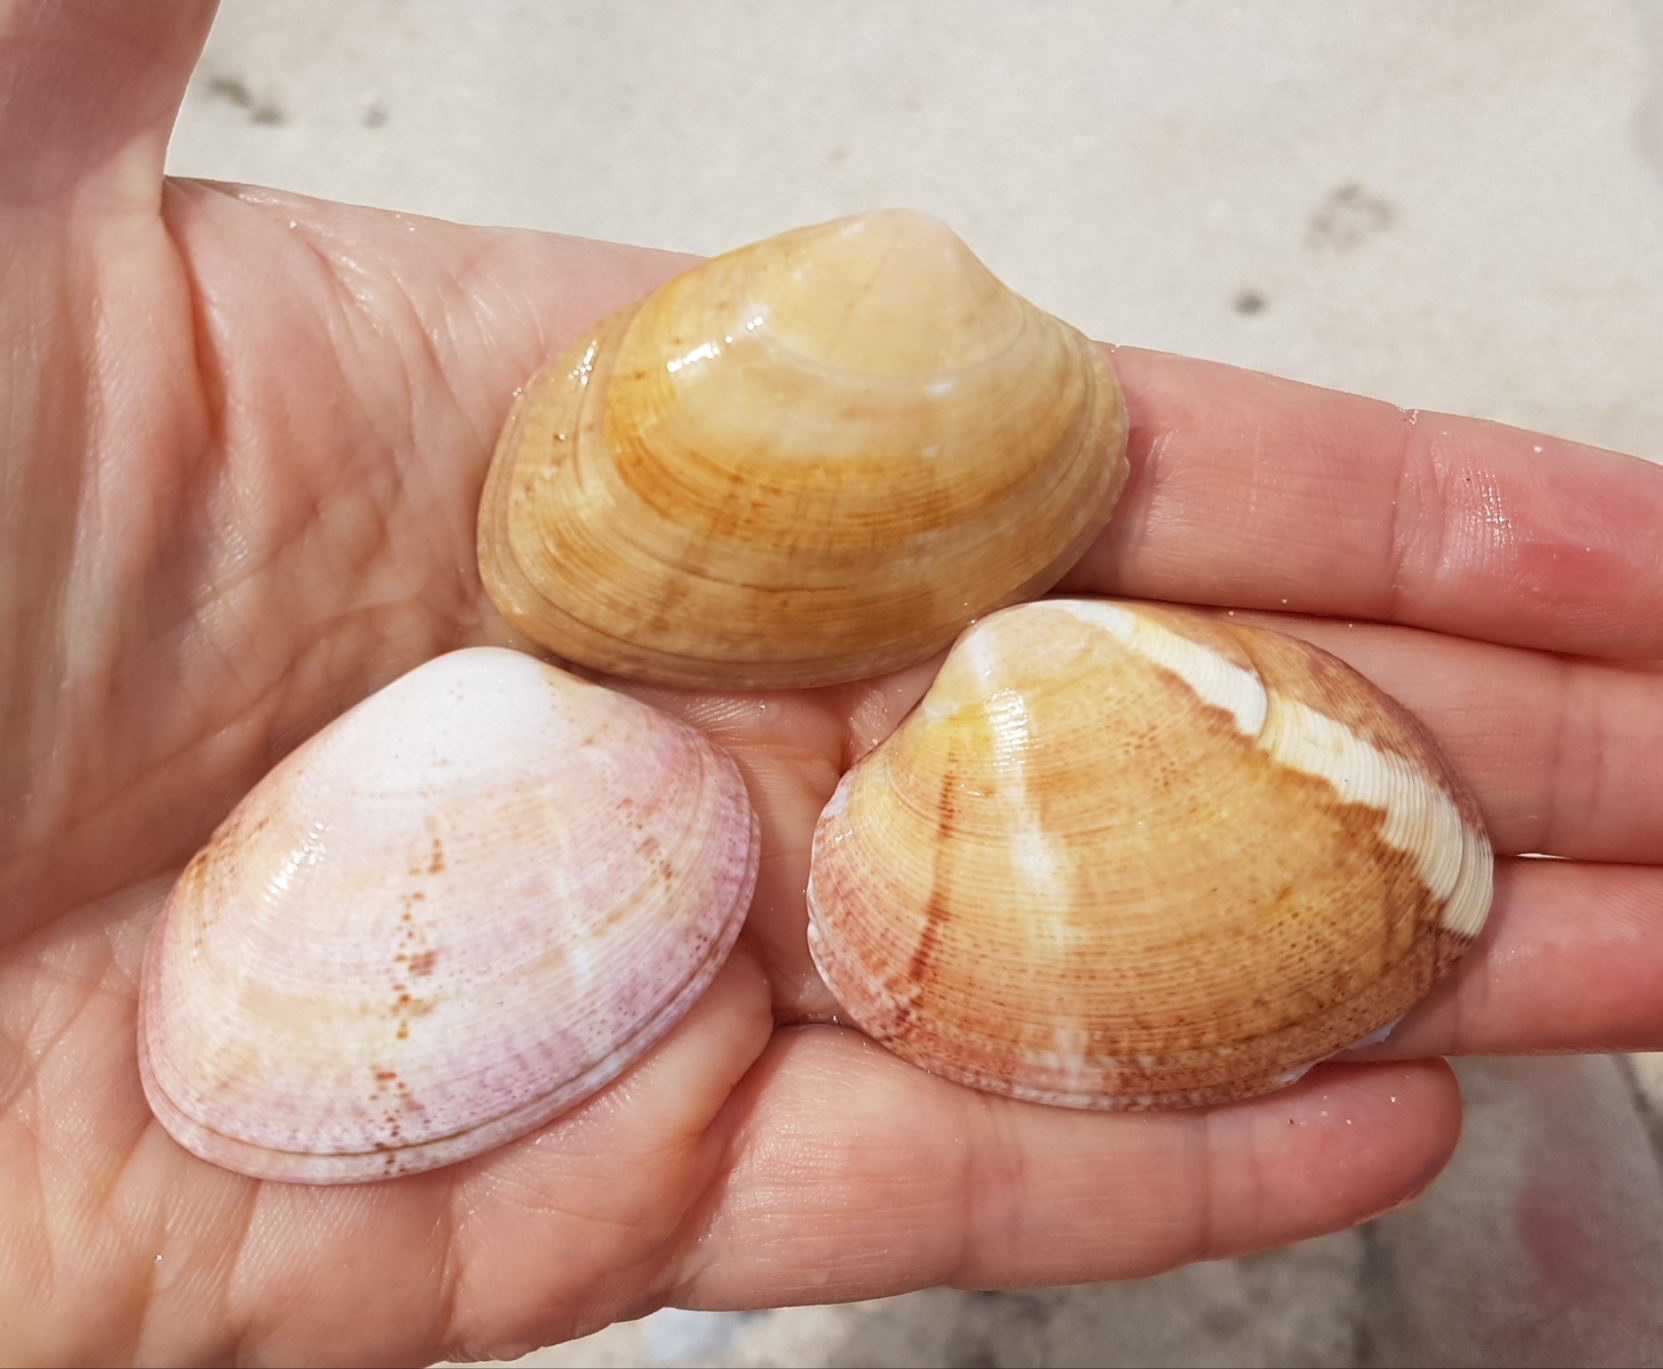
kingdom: Animalia
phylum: Mollusca
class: Bivalvia
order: Venerida
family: Veneridae
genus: Polititapes
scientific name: Polititapes rhomboides
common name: Banded carpet shell
